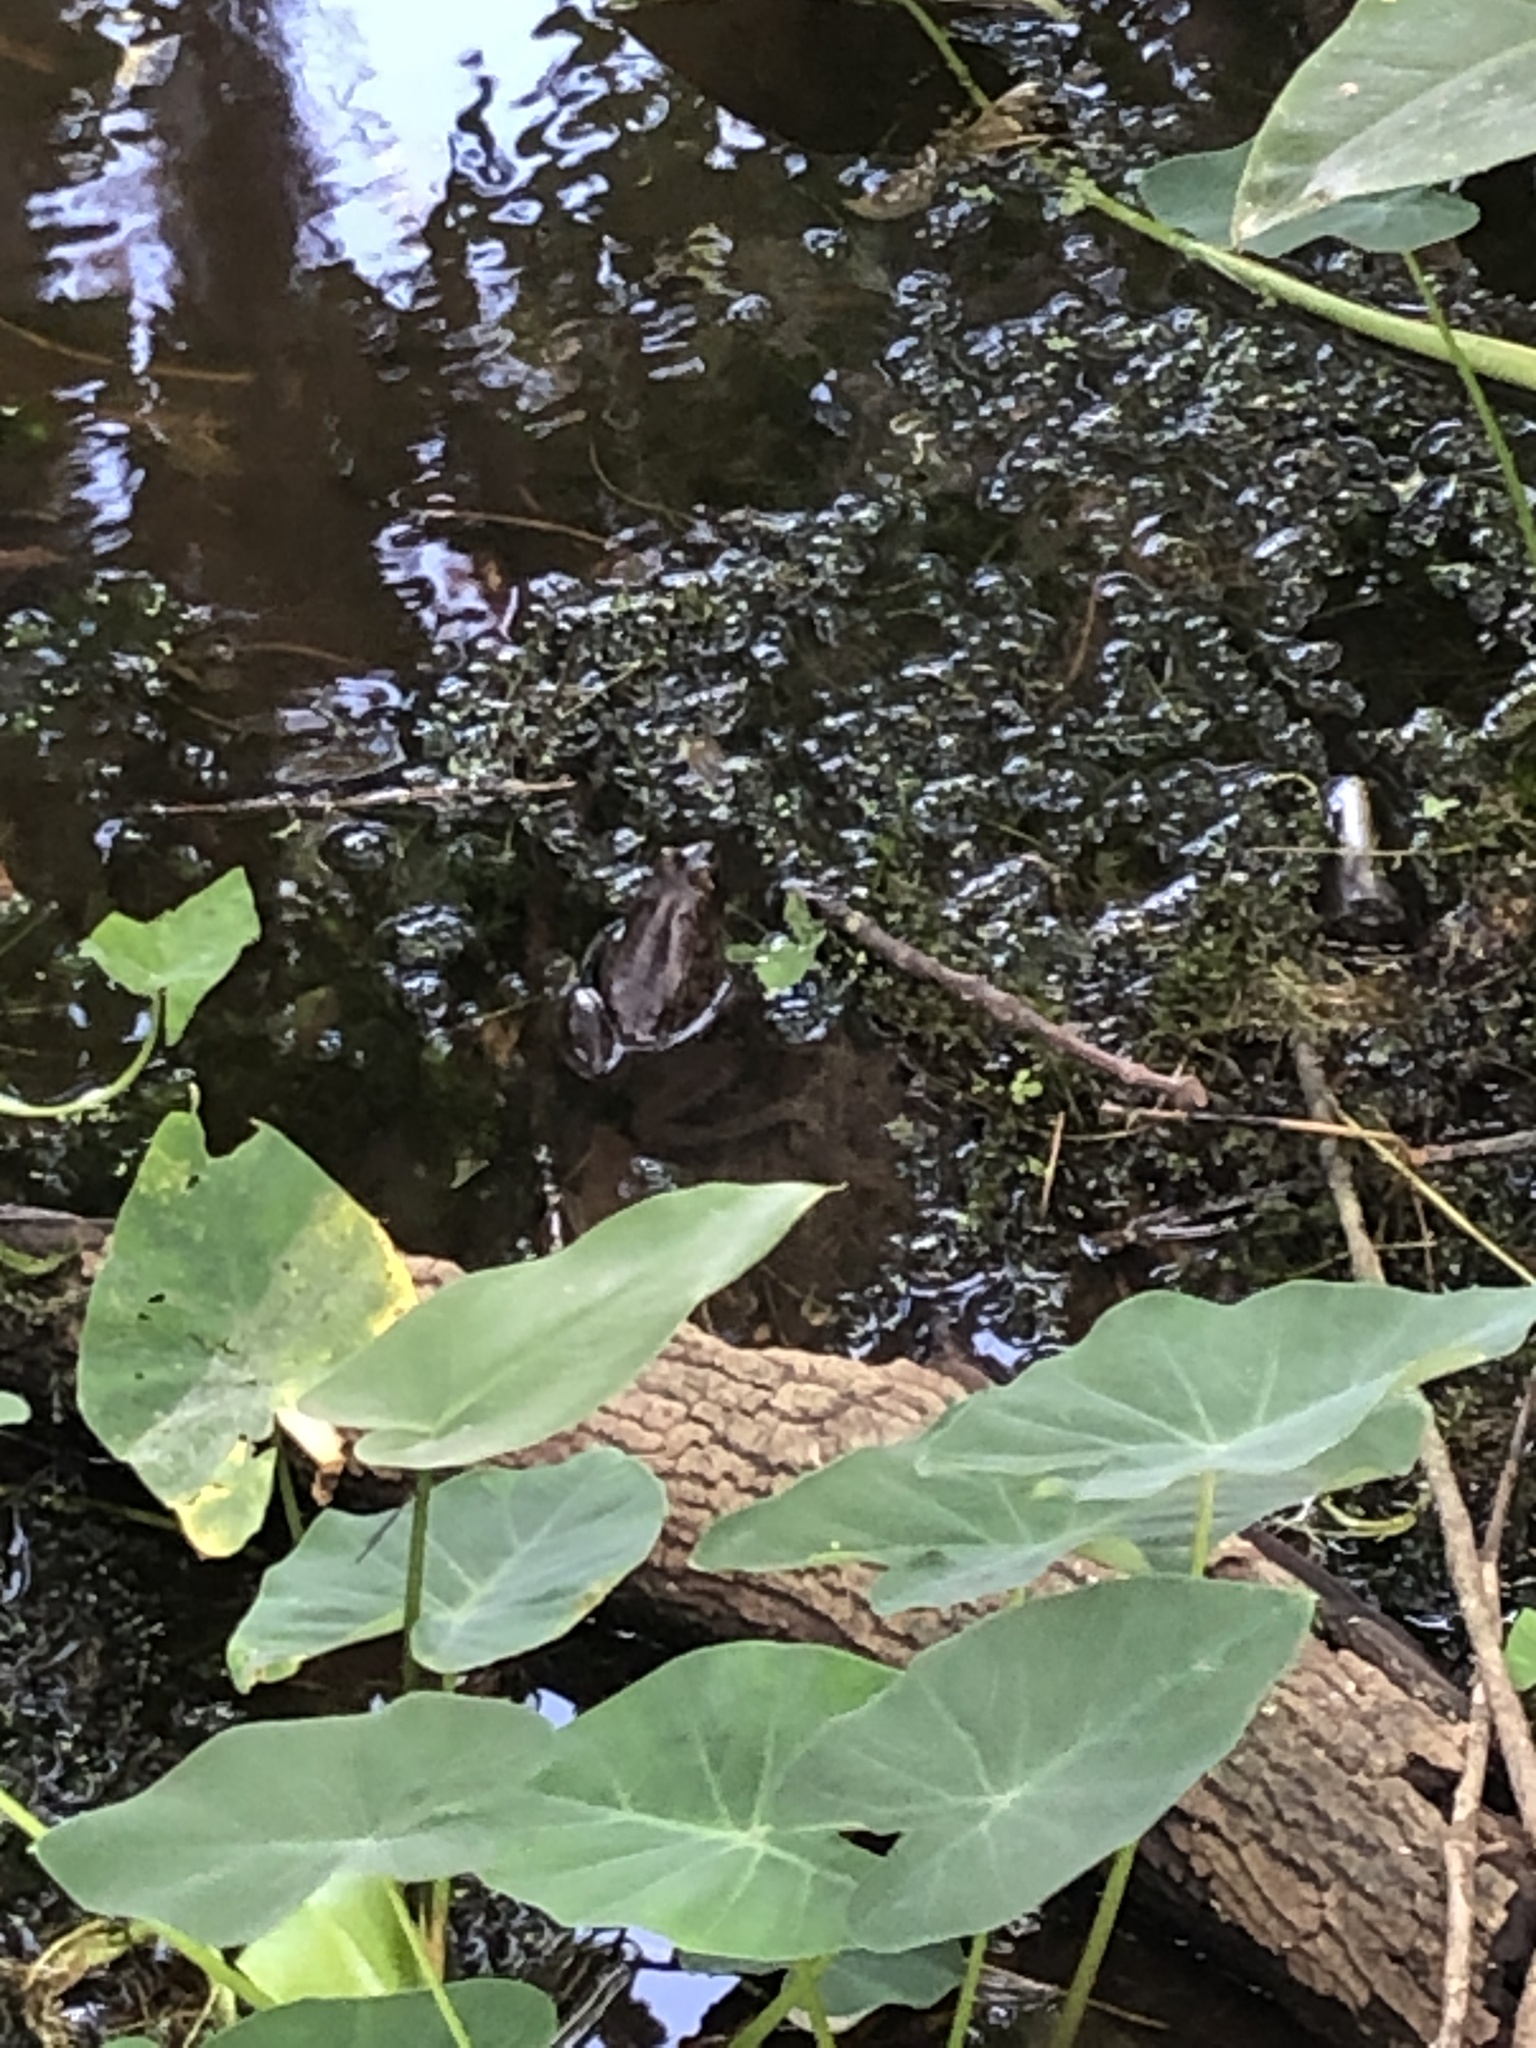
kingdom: Animalia
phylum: Chordata
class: Amphibia
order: Anura
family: Ranidae
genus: Lithobates
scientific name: Lithobates catesbeianus
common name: American bullfrog
